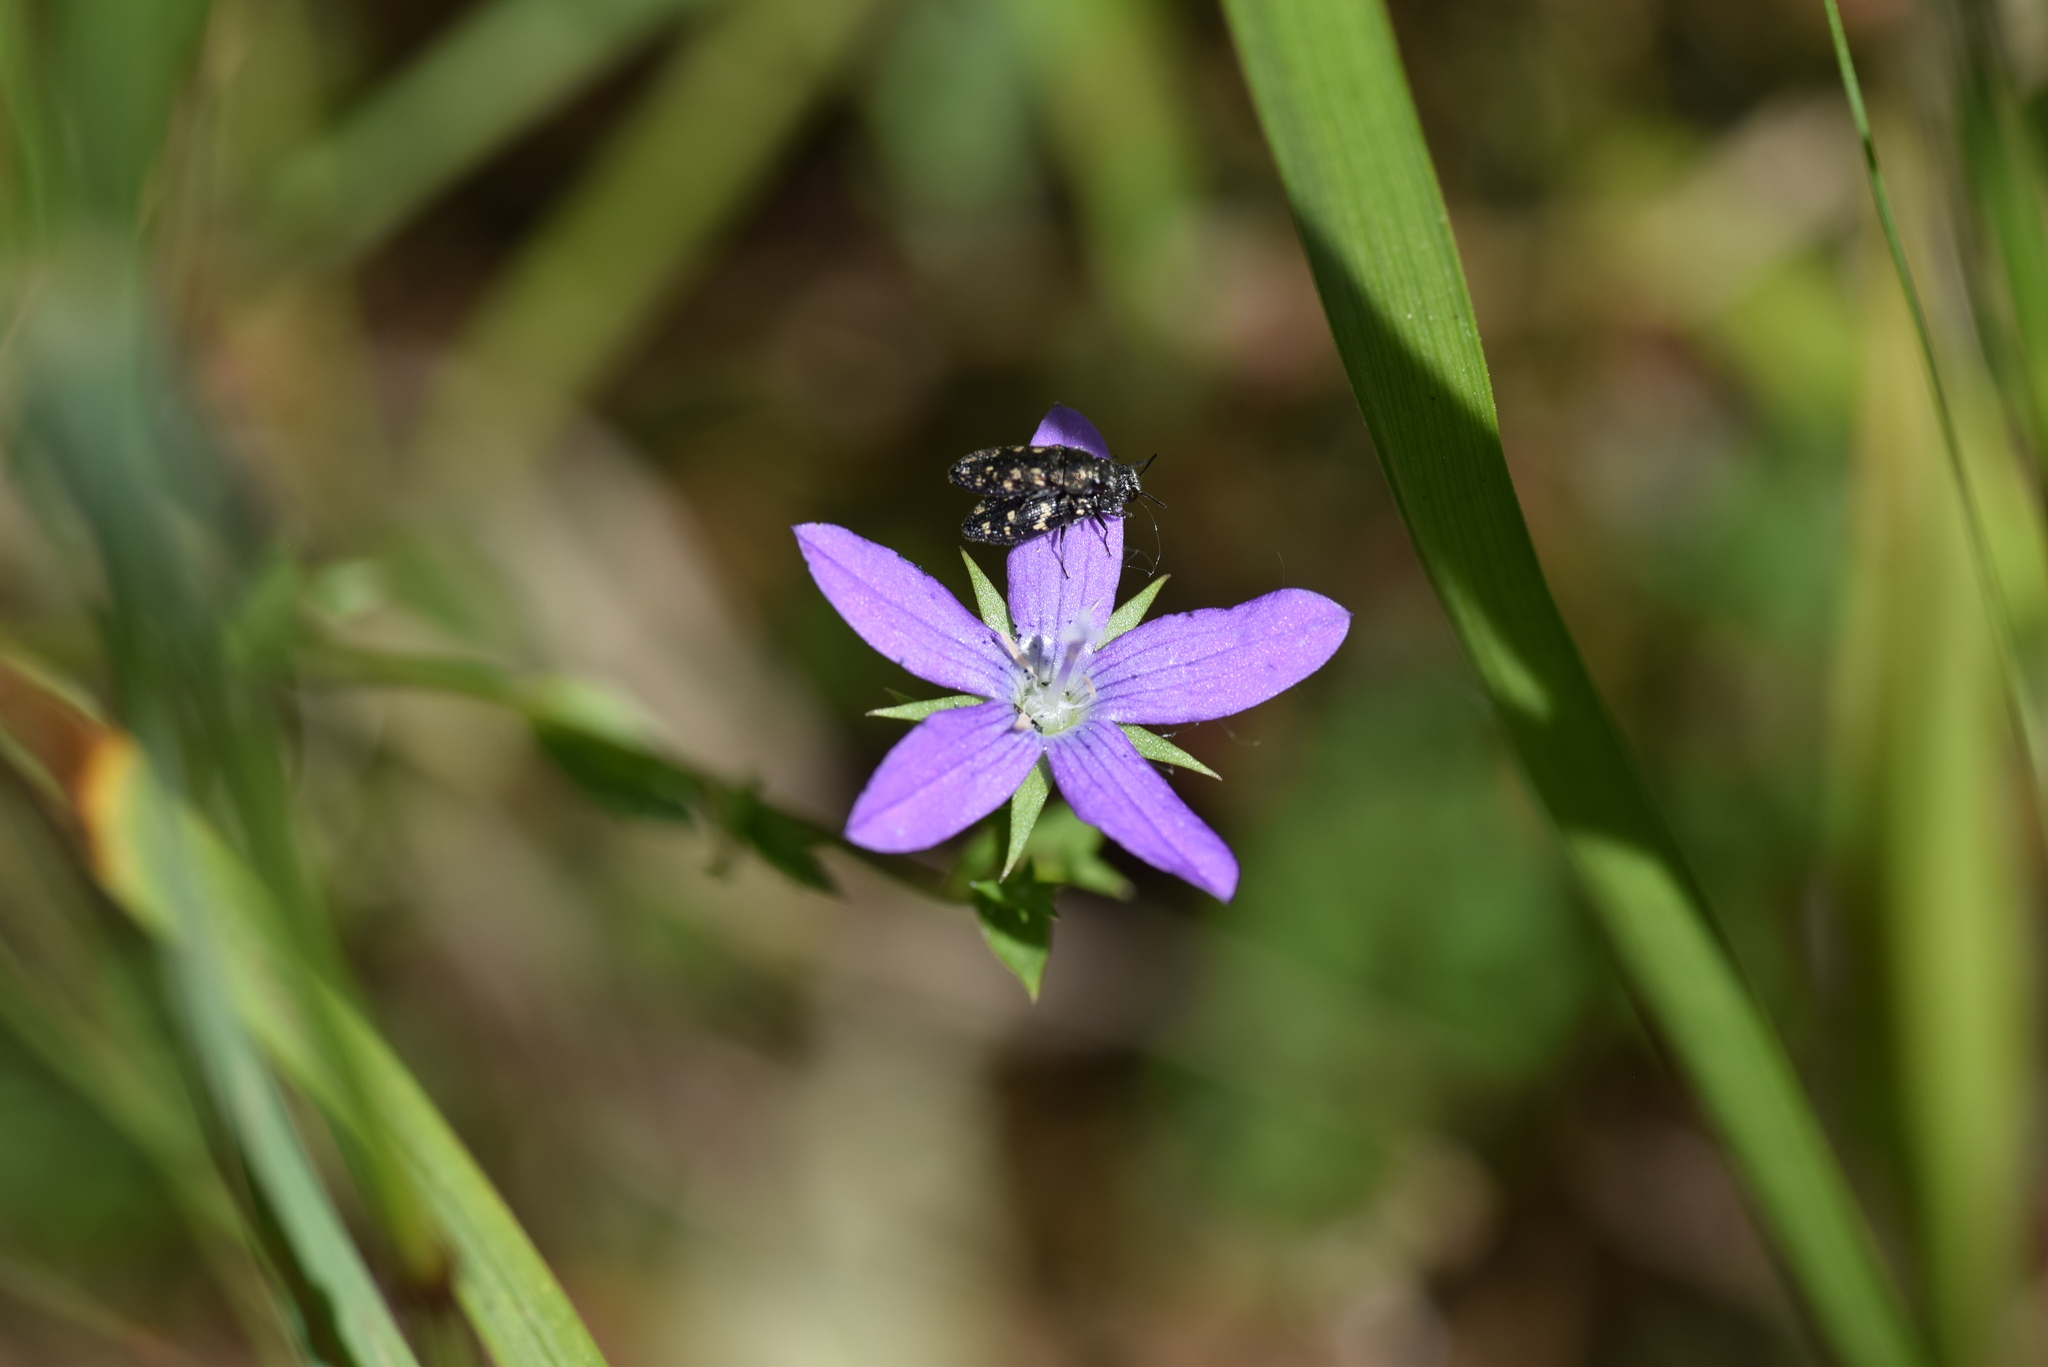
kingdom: Plantae
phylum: Tracheophyta
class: Magnoliopsida
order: Asterales
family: Campanulaceae
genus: Triodanis
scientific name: Triodanis biflora
